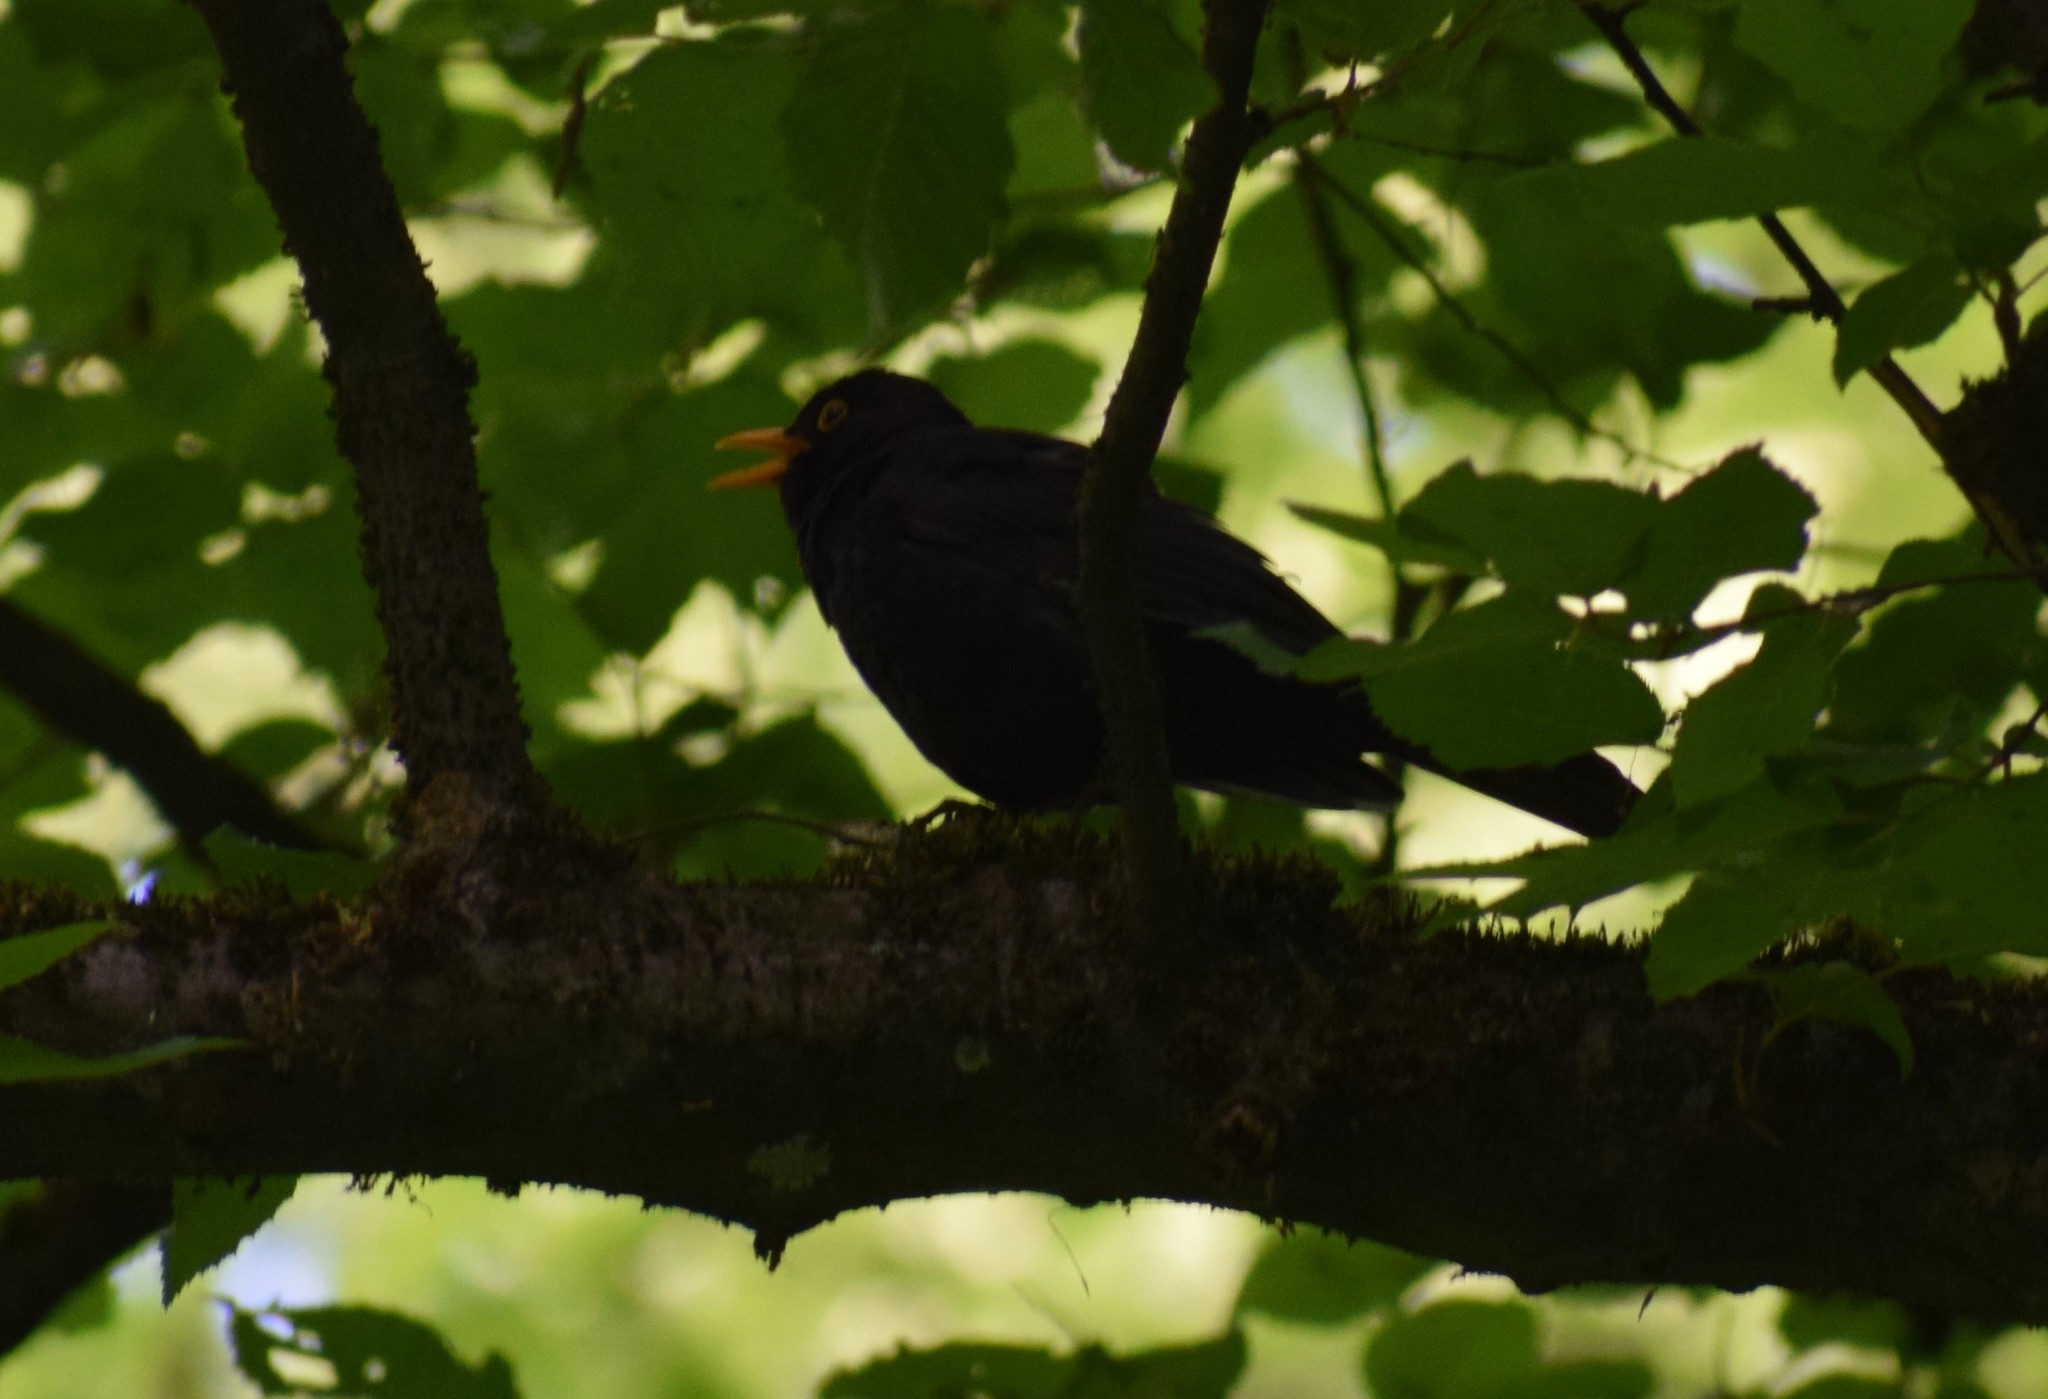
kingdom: Animalia
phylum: Chordata
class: Aves
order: Passeriformes
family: Turdidae
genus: Turdus
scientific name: Turdus merula
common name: Common blackbird
